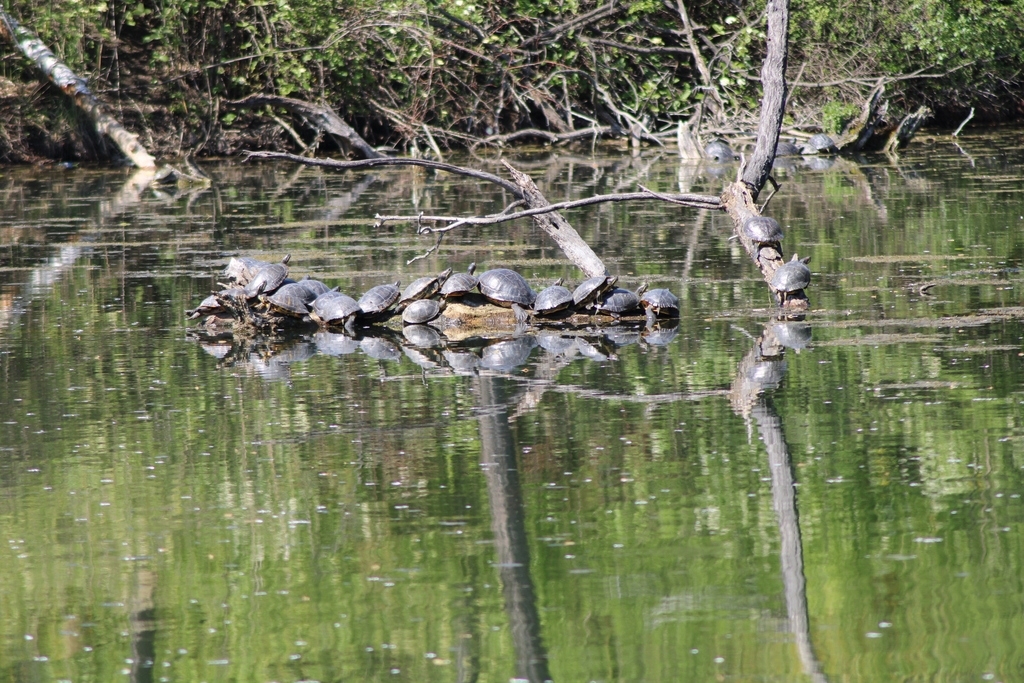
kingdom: Animalia
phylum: Chordata
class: Testudines
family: Emydidae
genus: Pseudemys
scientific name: Pseudemys concinna
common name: Eastern river cooter
